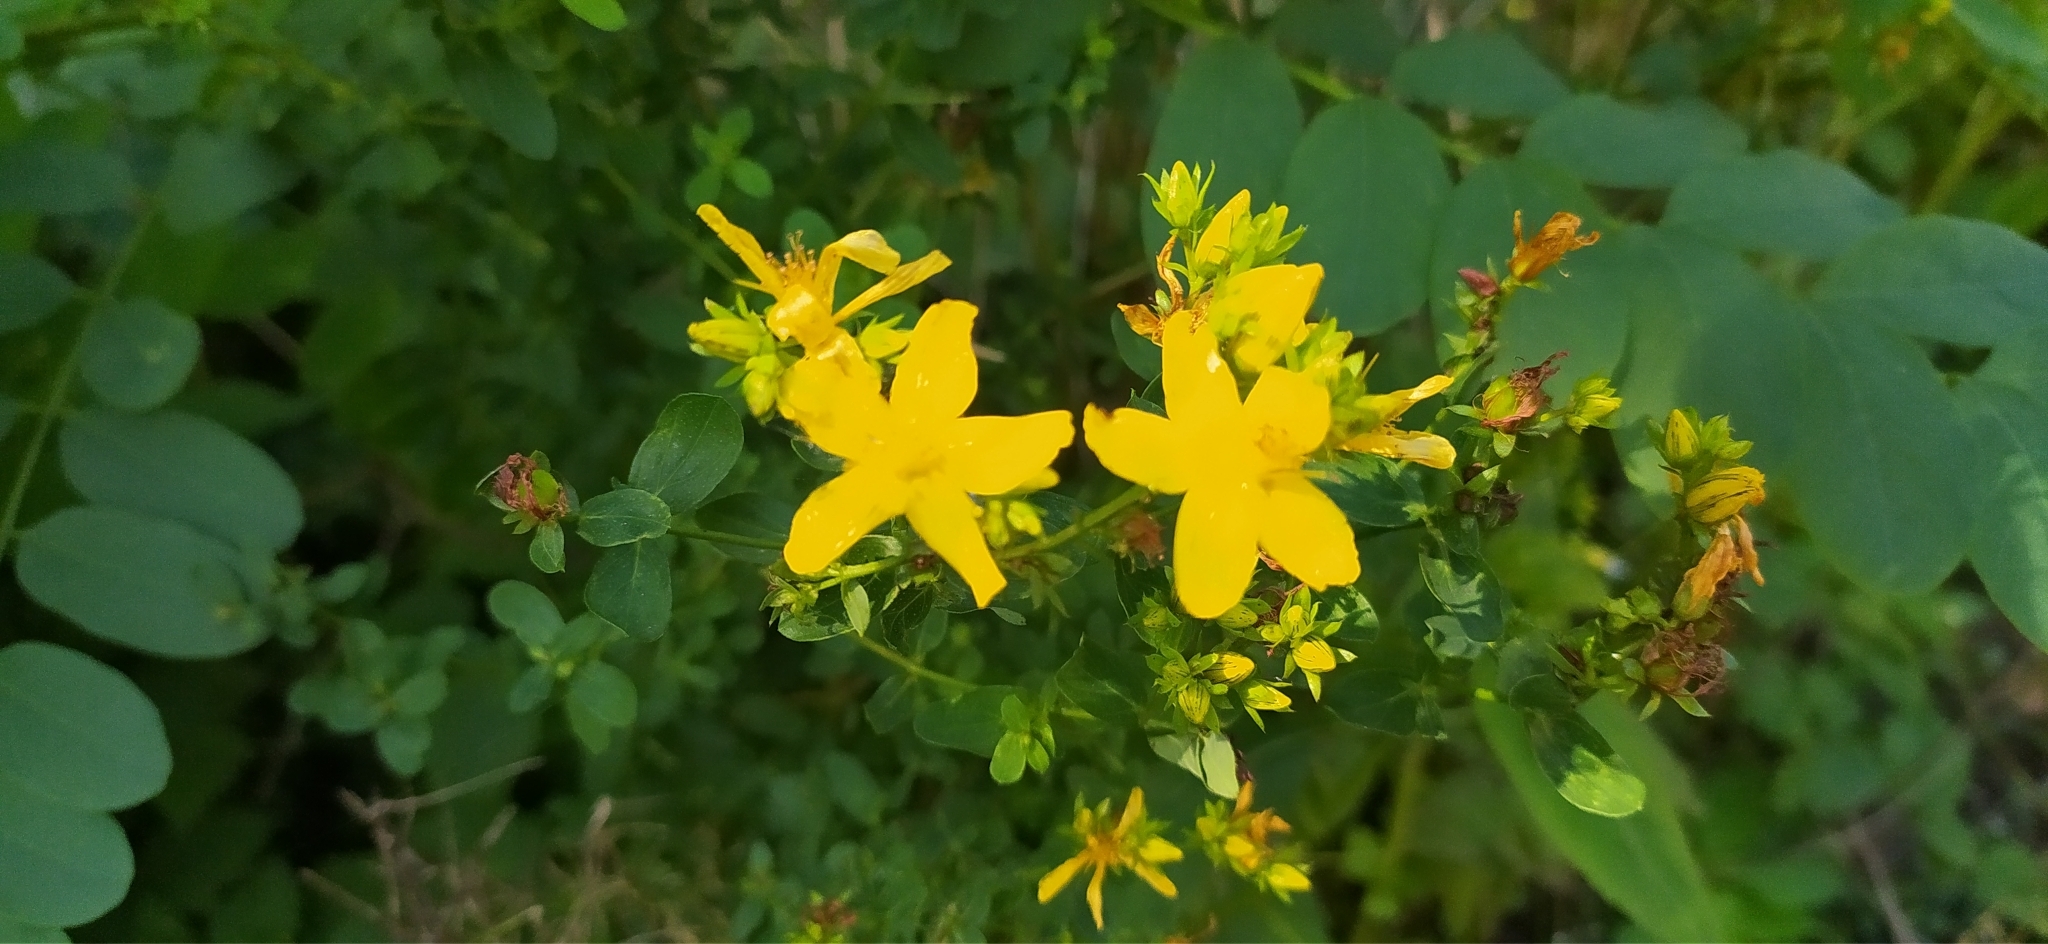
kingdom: Plantae
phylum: Tracheophyta
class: Magnoliopsida
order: Malpighiales
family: Hypericaceae
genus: Hypericum
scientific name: Hypericum perforatum
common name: Common st. johnswort
